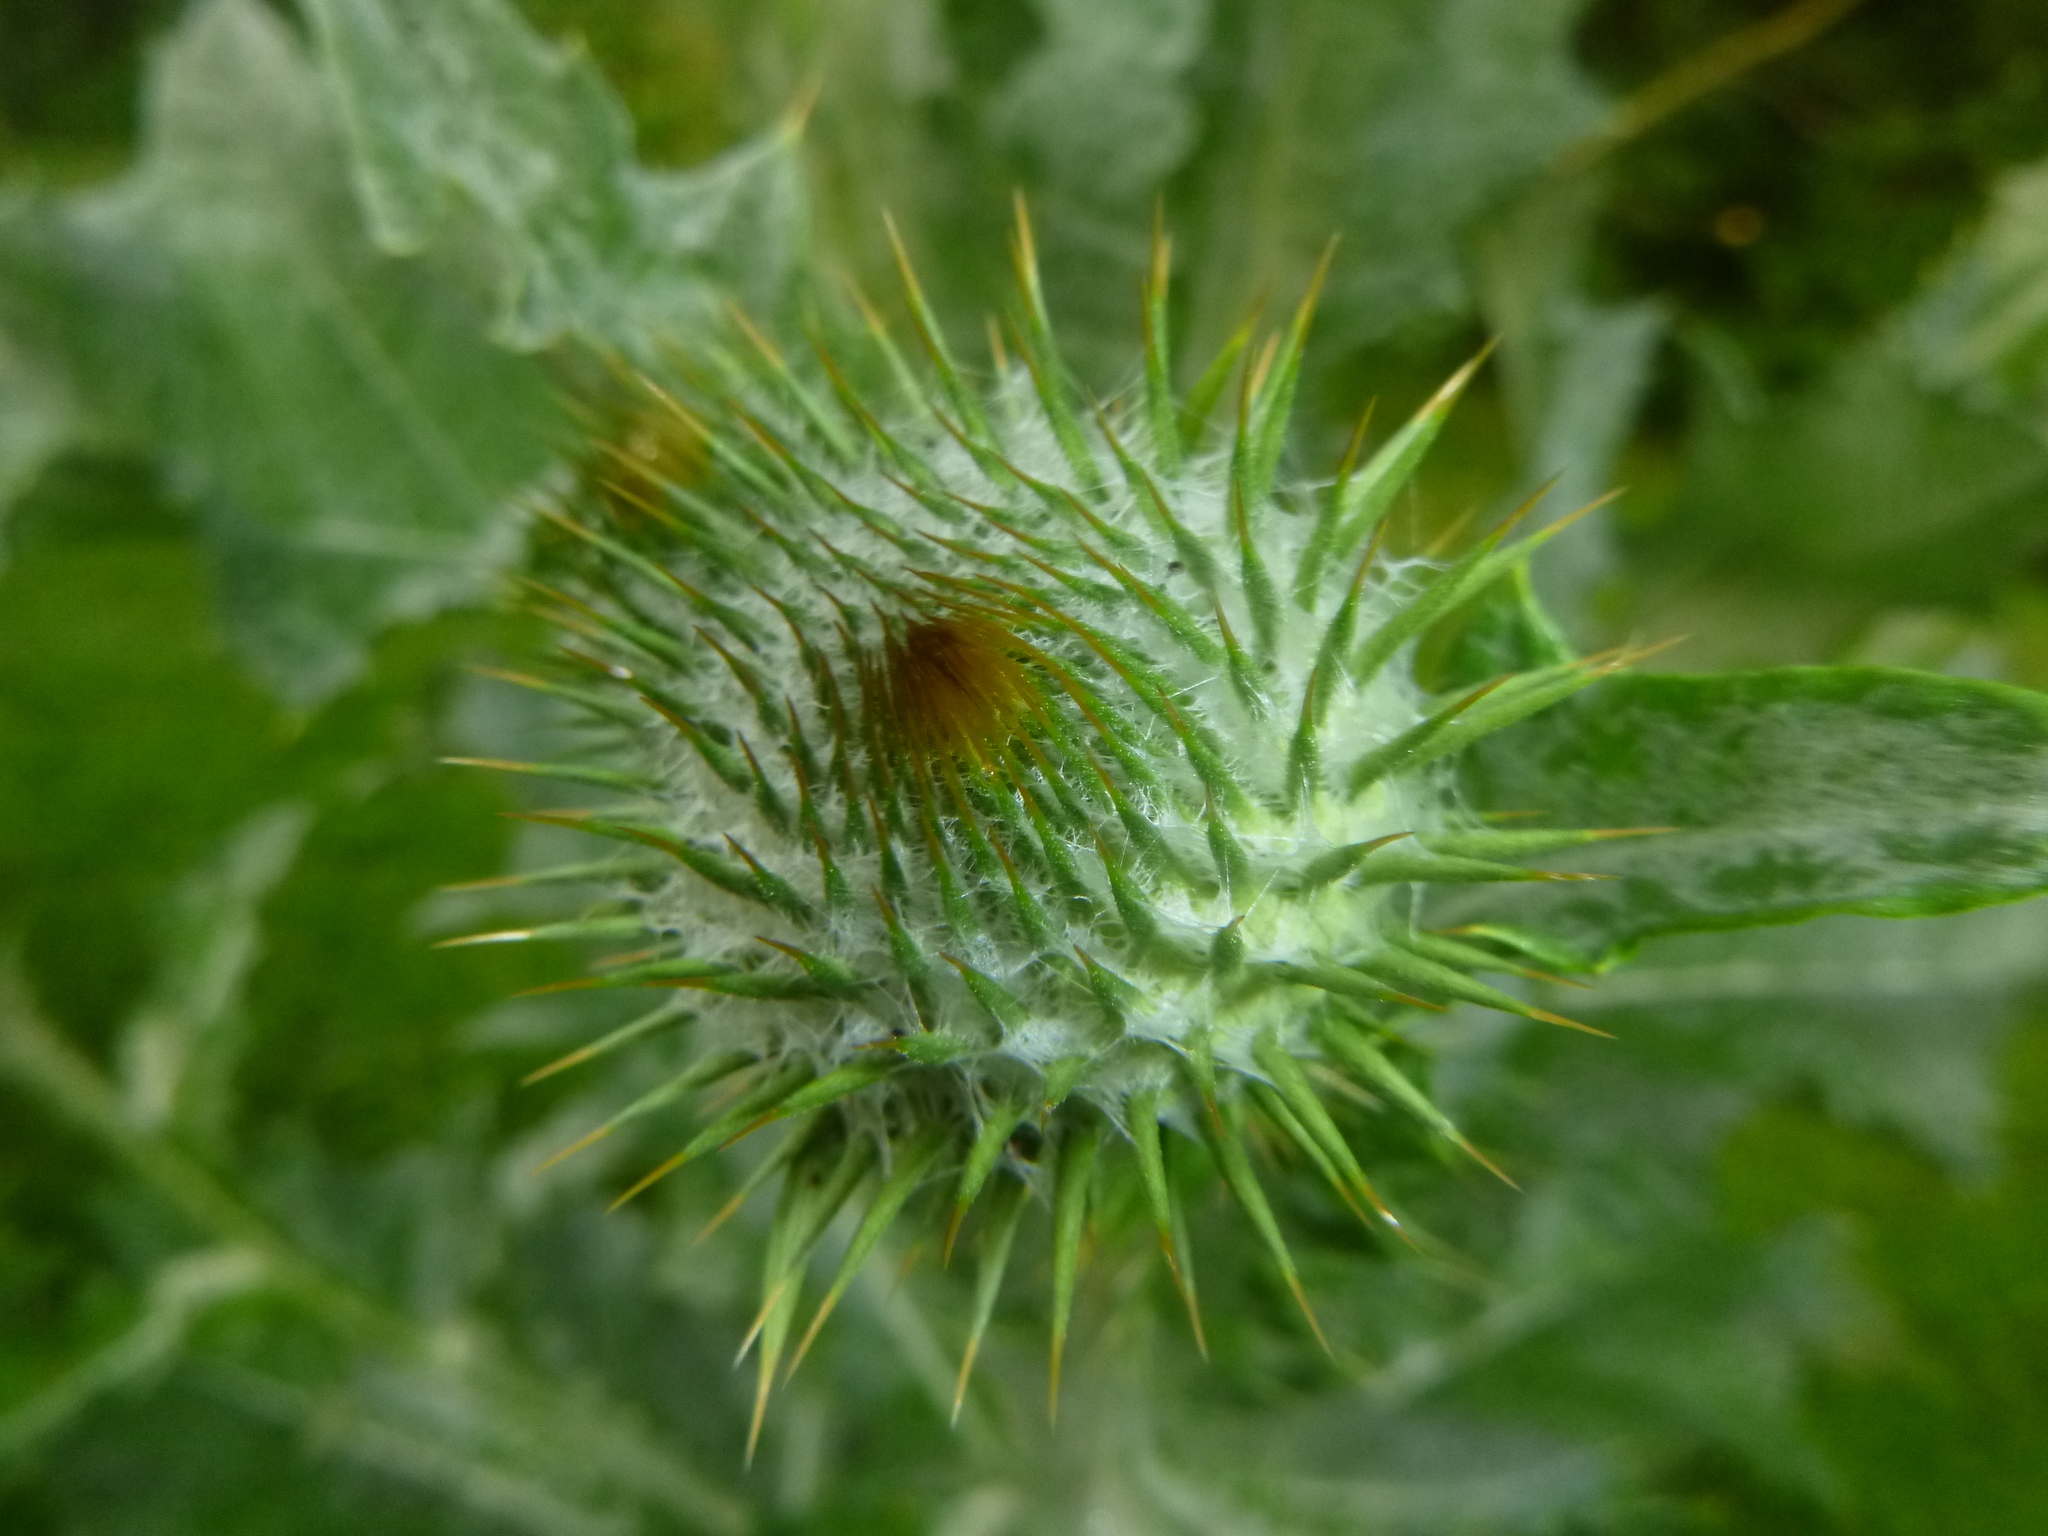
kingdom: Plantae
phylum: Tracheophyta
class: Magnoliopsida
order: Asterales
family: Asteraceae
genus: Onopordum
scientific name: Onopordum acanthium
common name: Scotch thistle
